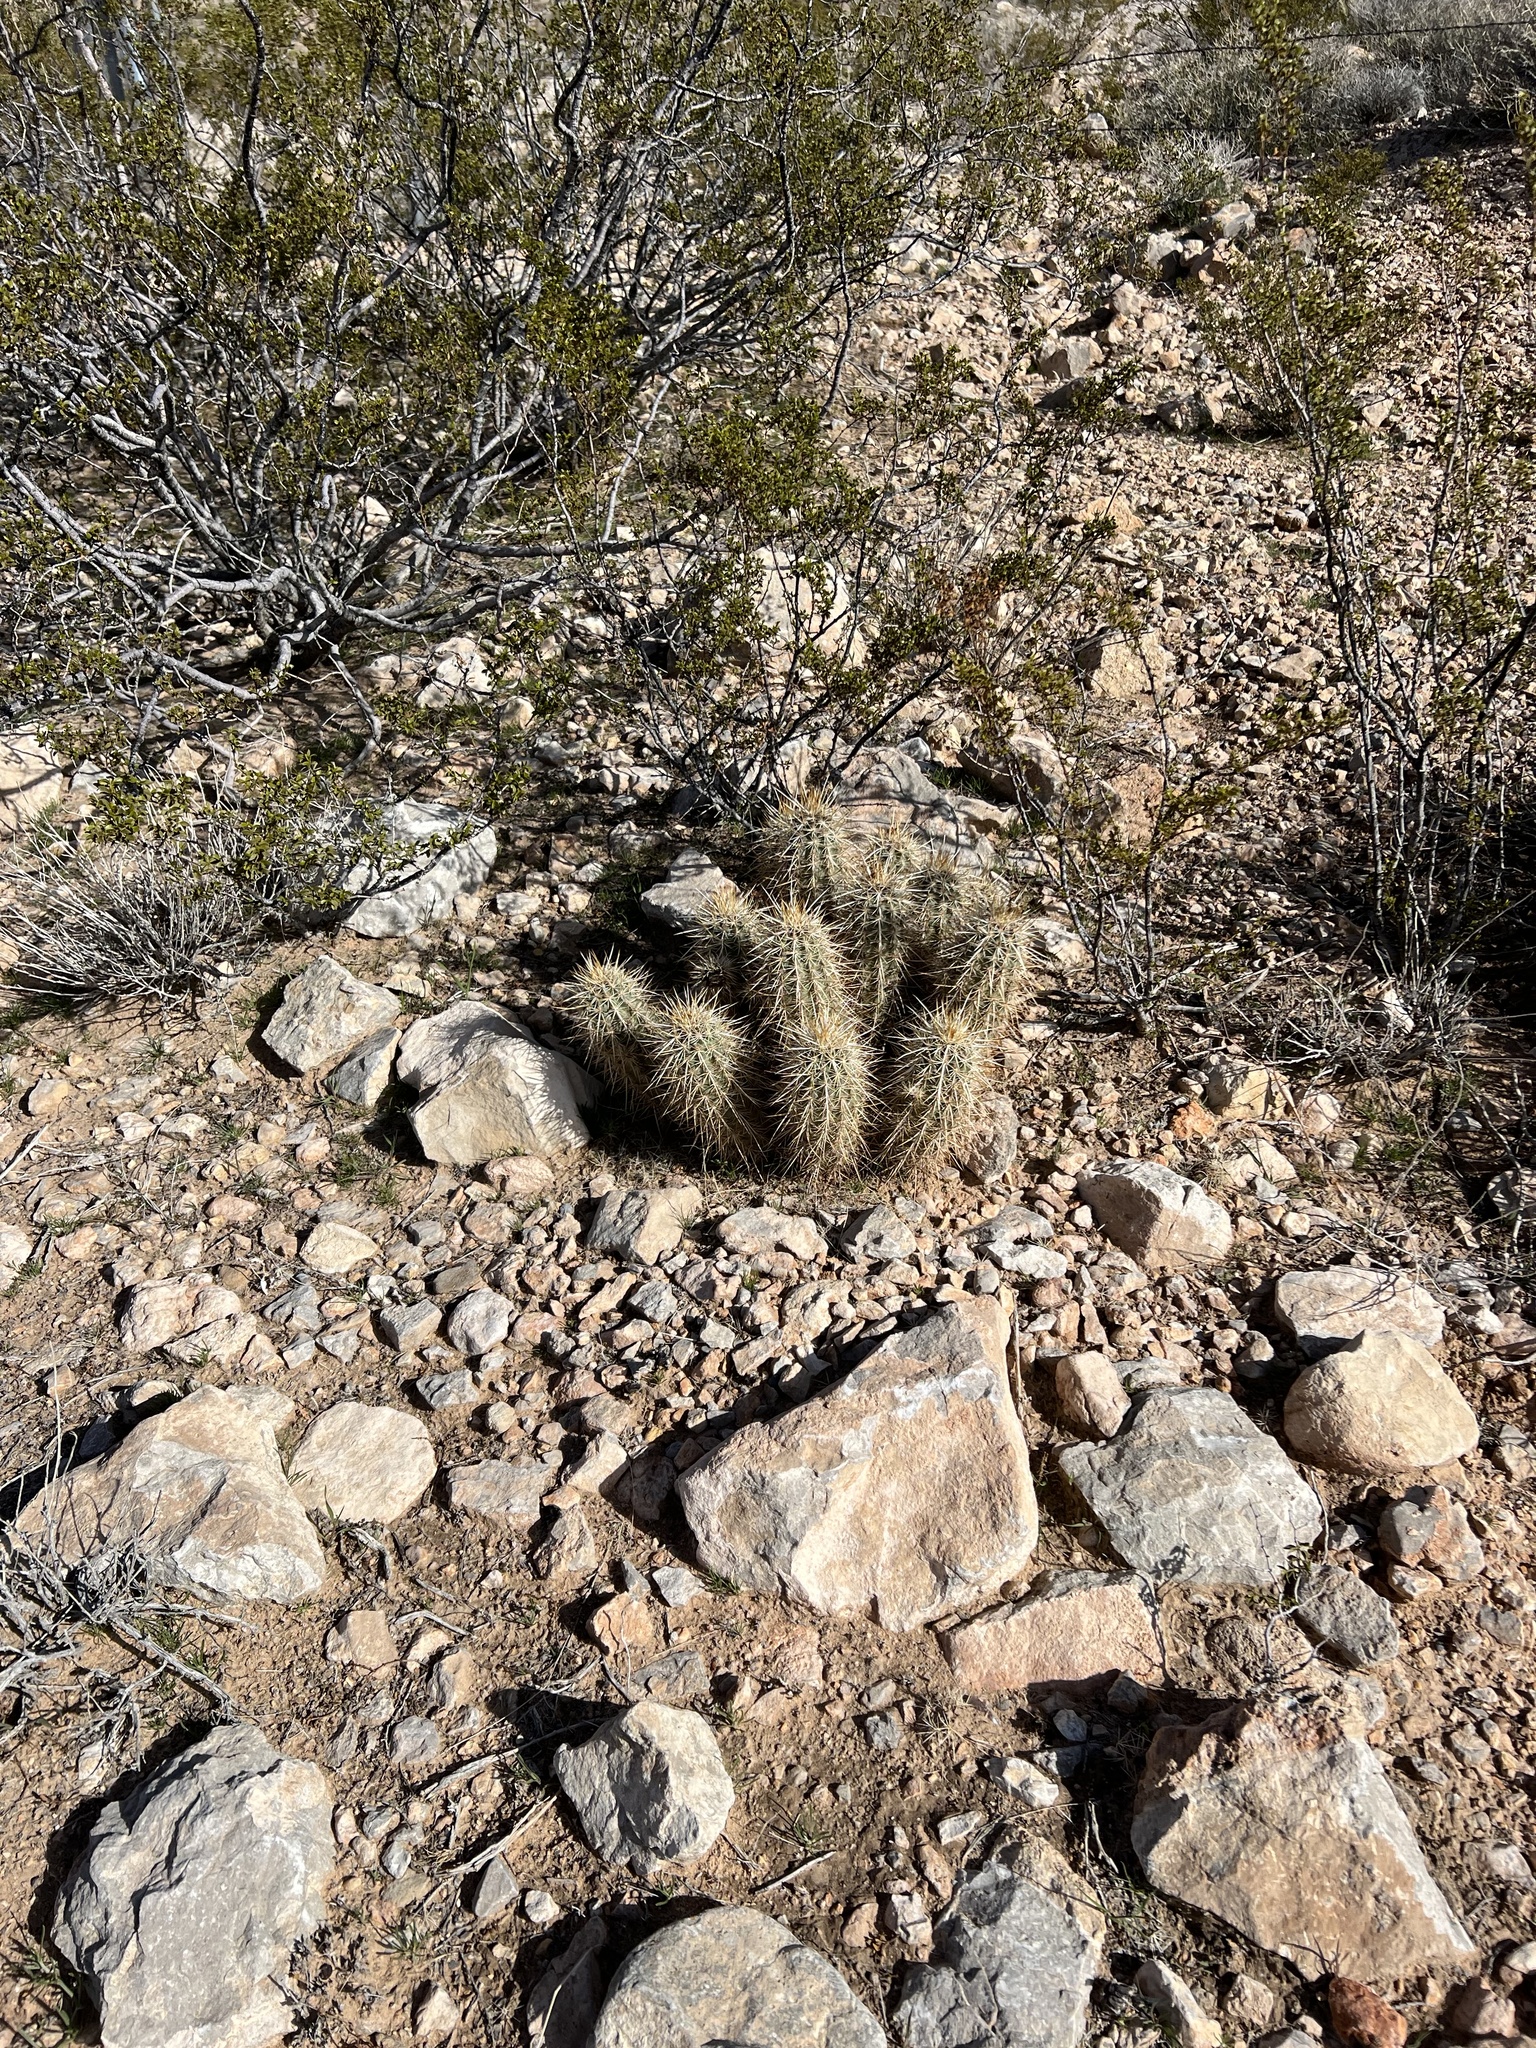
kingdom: Plantae
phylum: Tracheophyta
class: Magnoliopsida
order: Caryophyllales
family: Cactaceae
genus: Echinocereus
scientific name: Echinocereus engelmannii
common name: Engelmann's hedgehog cactus
